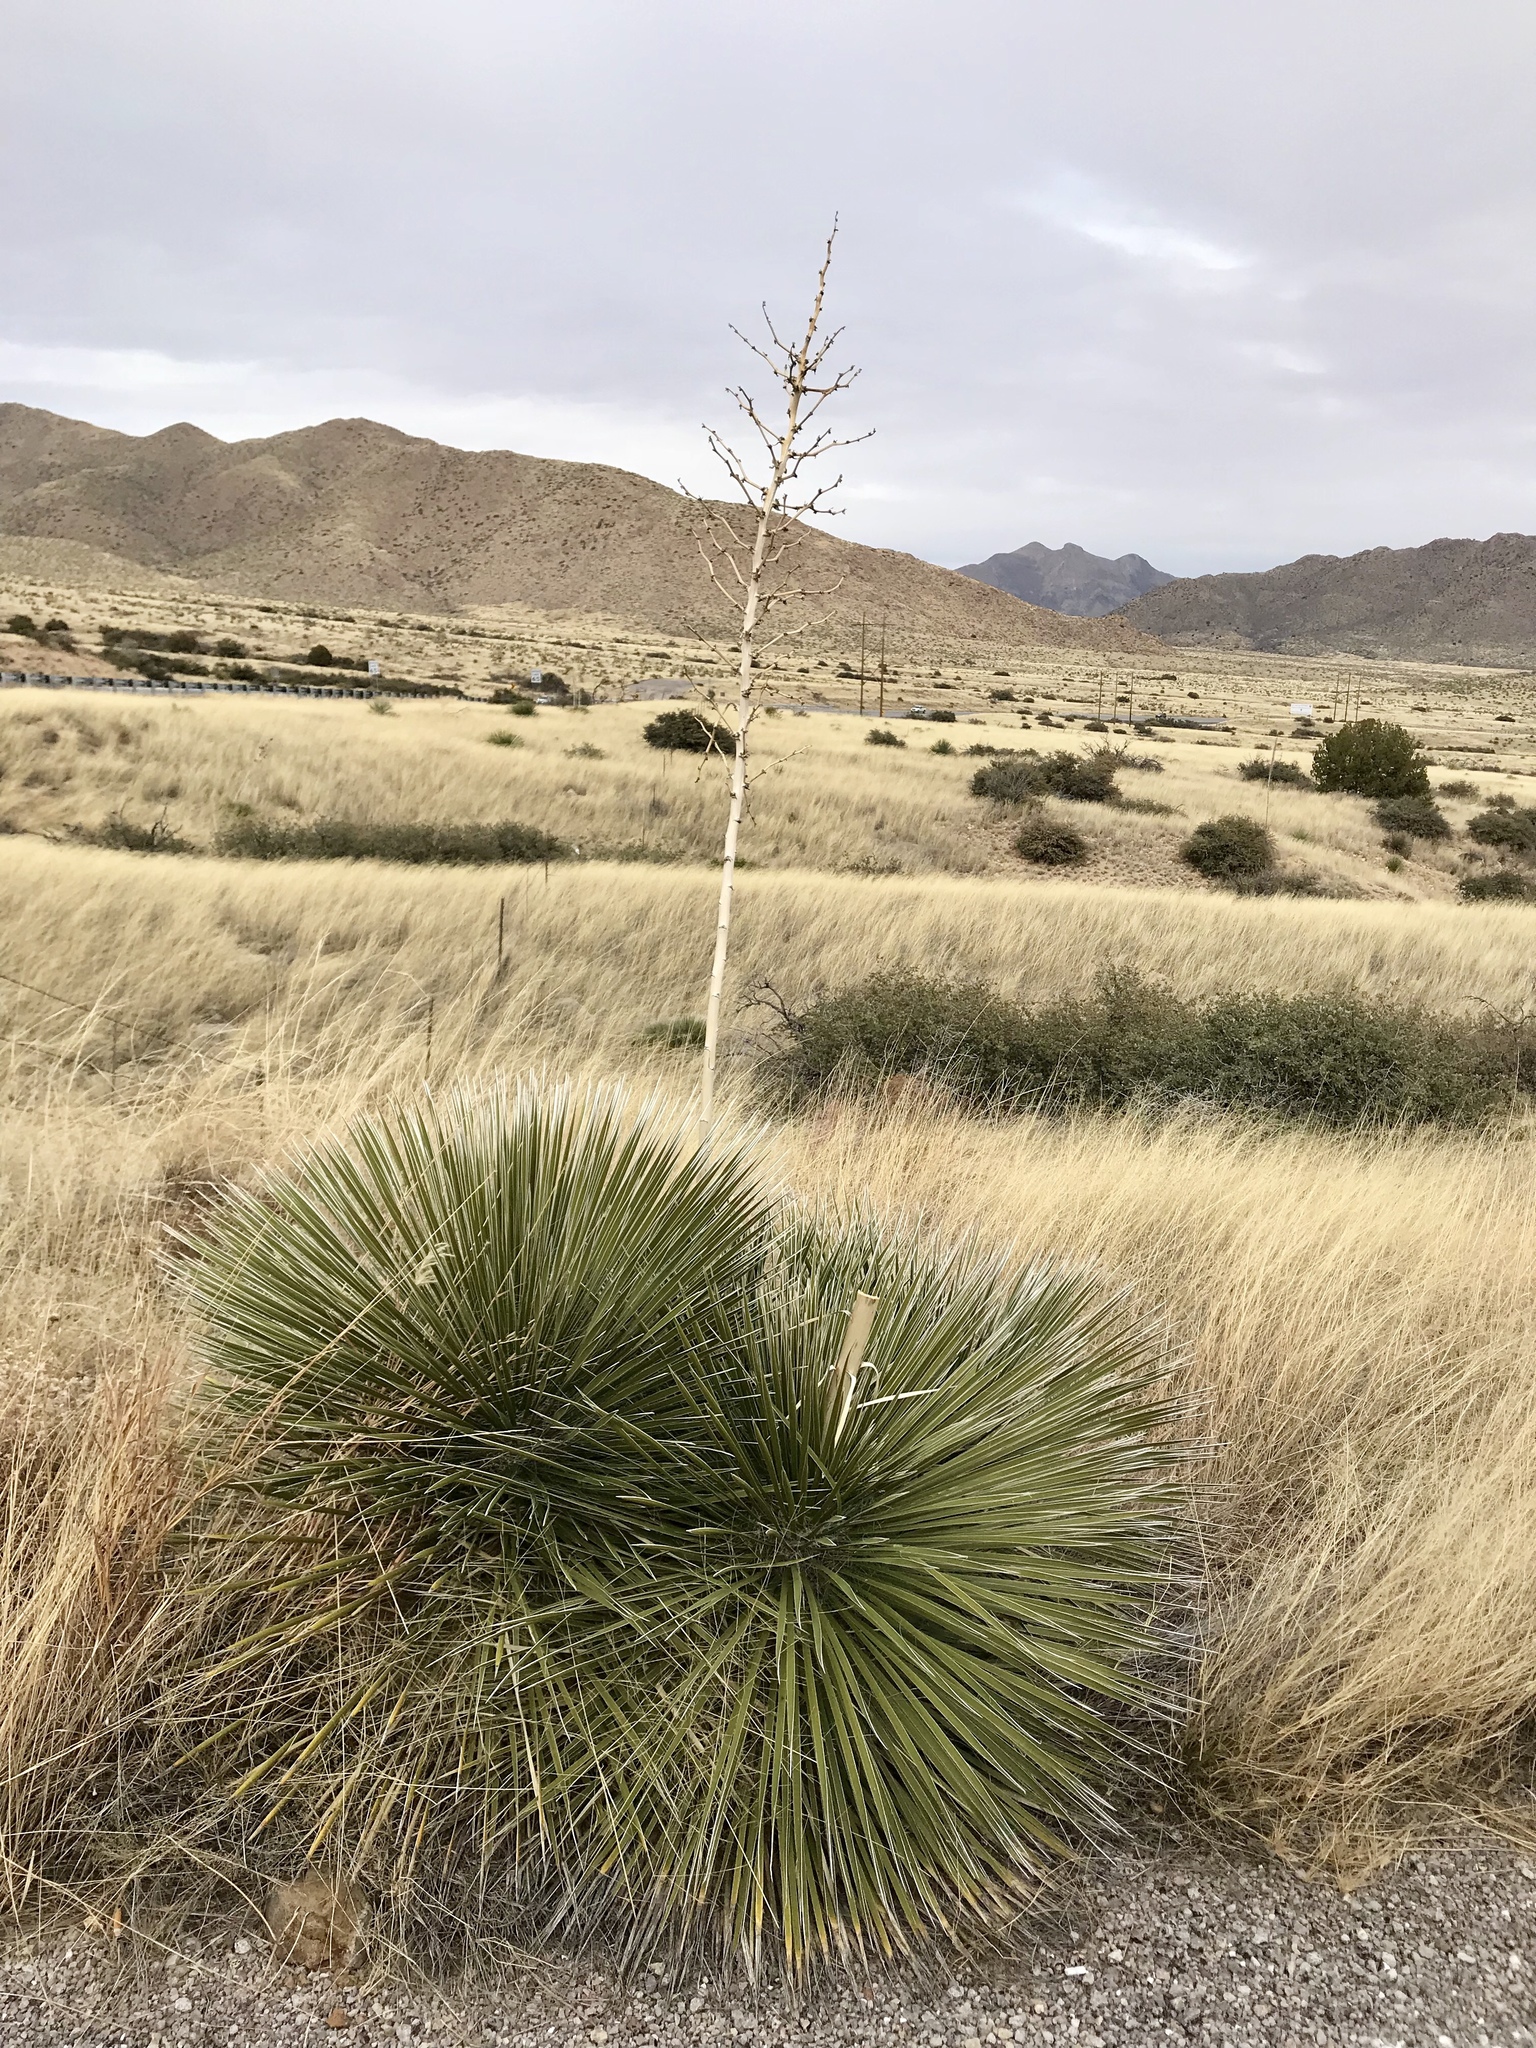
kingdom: Plantae
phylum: Tracheophyta
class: Liliopsida
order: Asparagales
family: Asparagaceae
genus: Yucca
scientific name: Yucca elata
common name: Palmella
